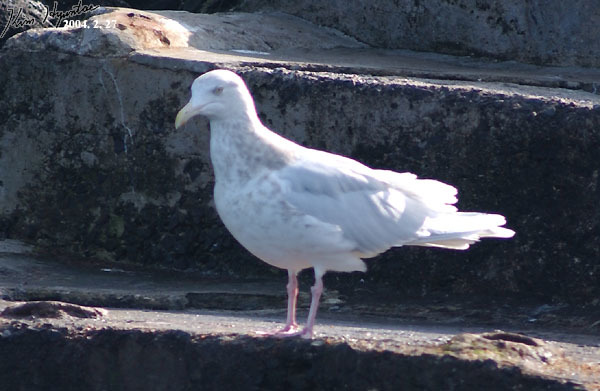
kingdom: Animalia
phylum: Chordata
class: Aves
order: Charadriiformes
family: Laridae
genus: Larus
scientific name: Larus hyperboreus
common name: Glaucous gull
